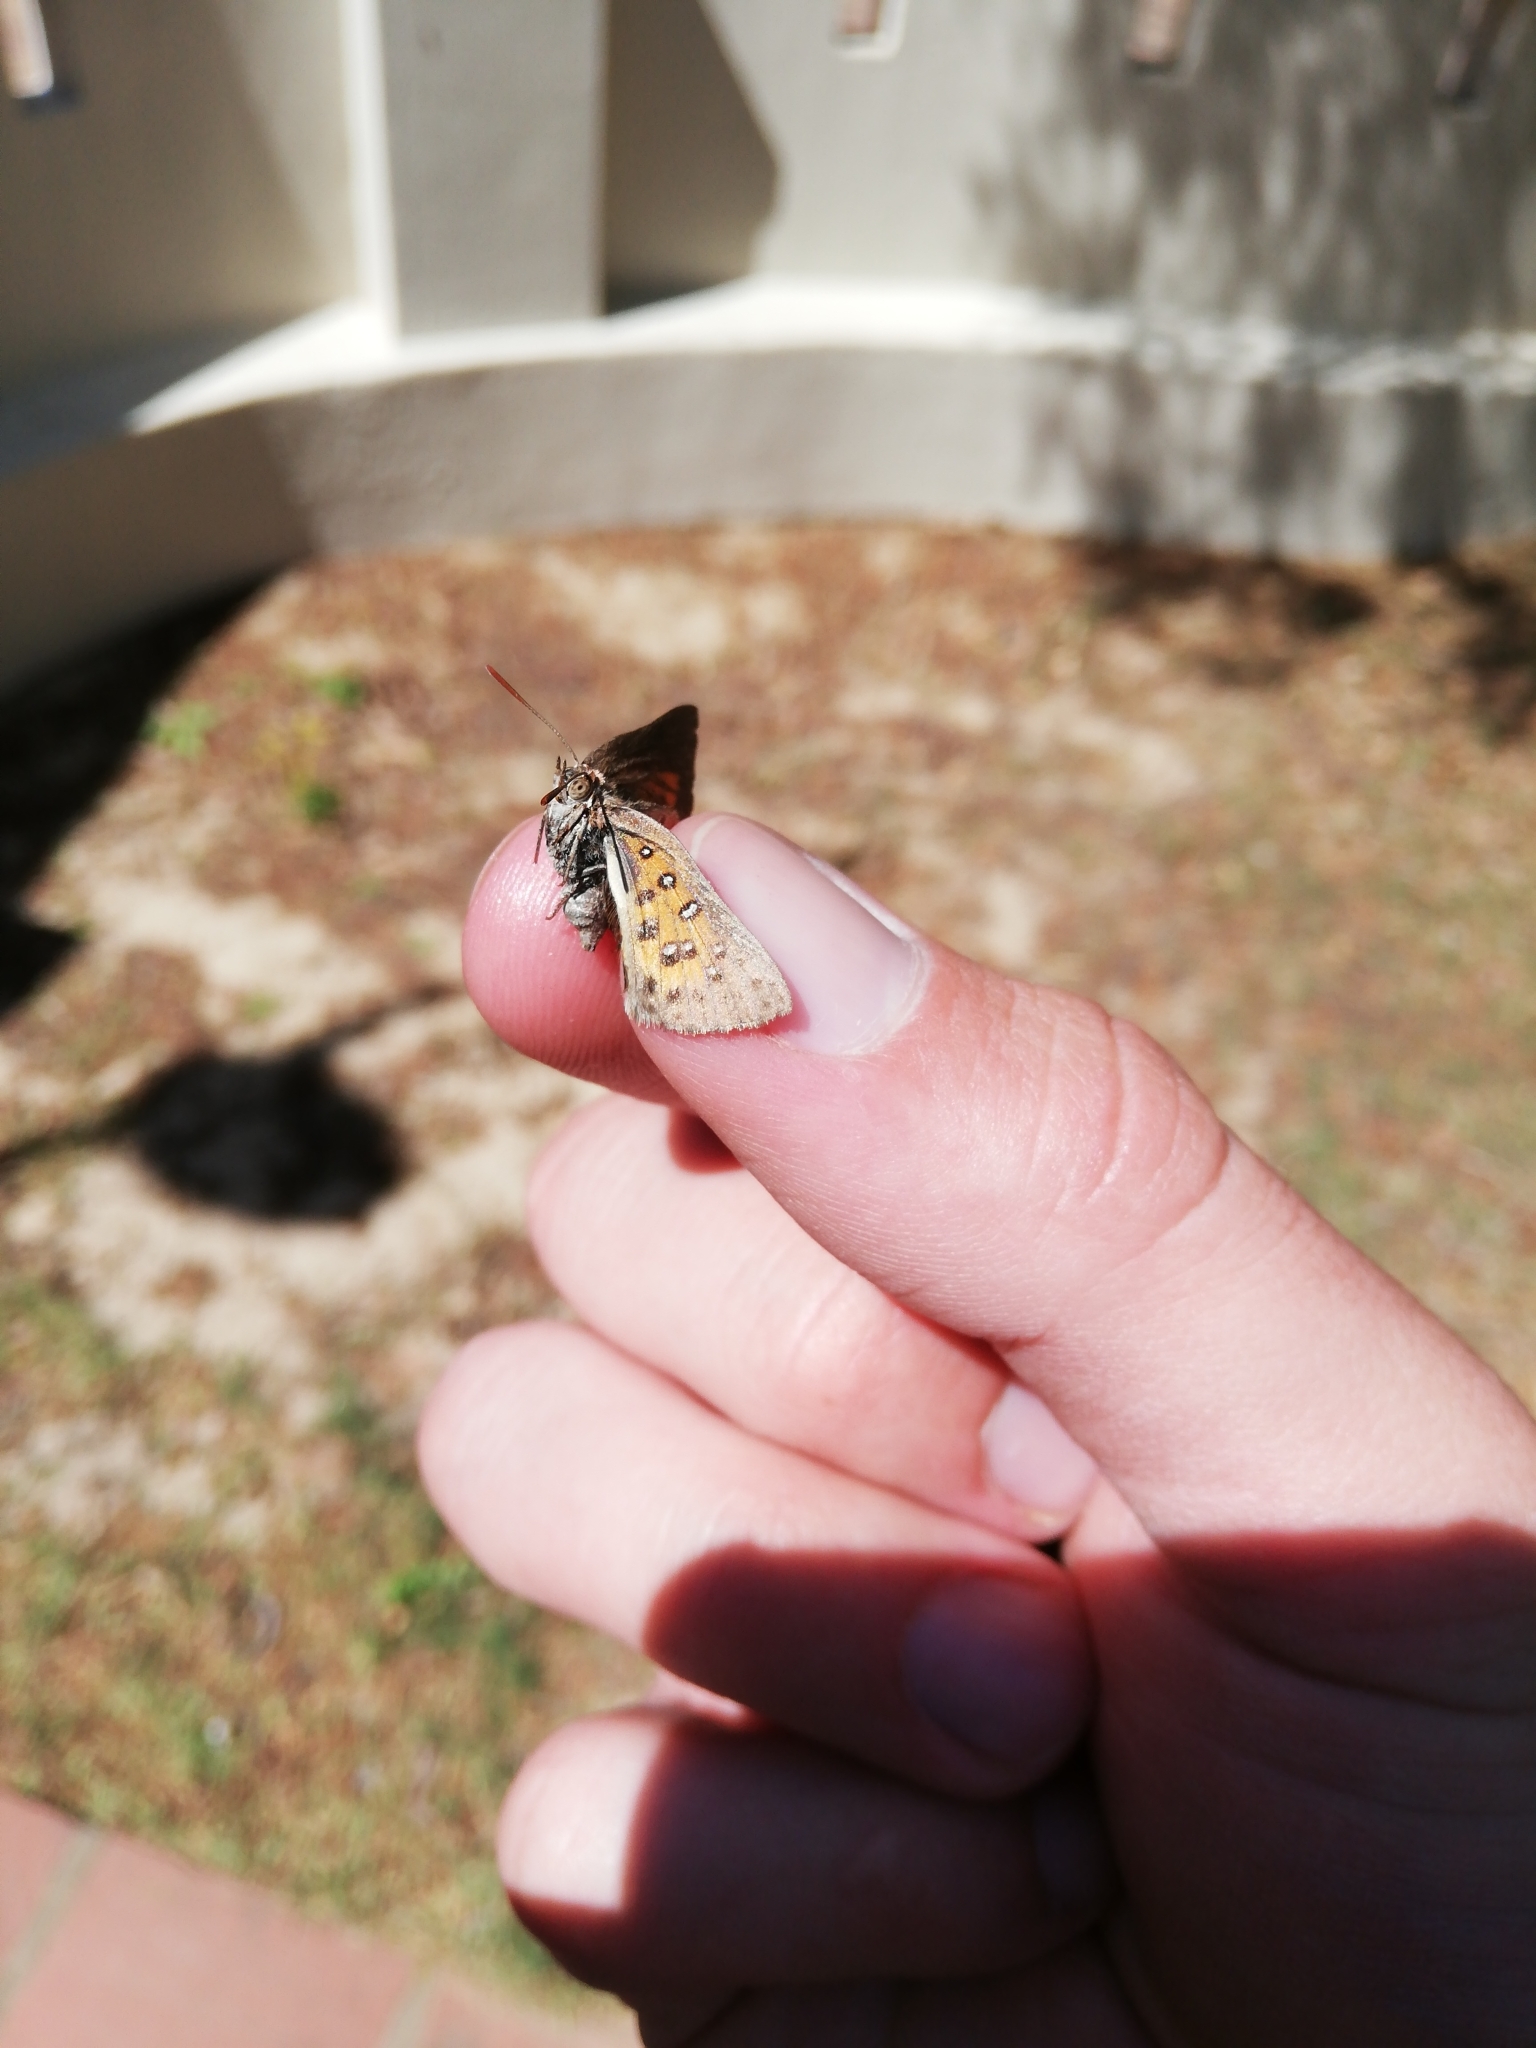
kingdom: Animalia
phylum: Arthropoda
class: Insecta
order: Lepidoptera
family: Lycaenidae
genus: Aloeides
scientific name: Aloeides
